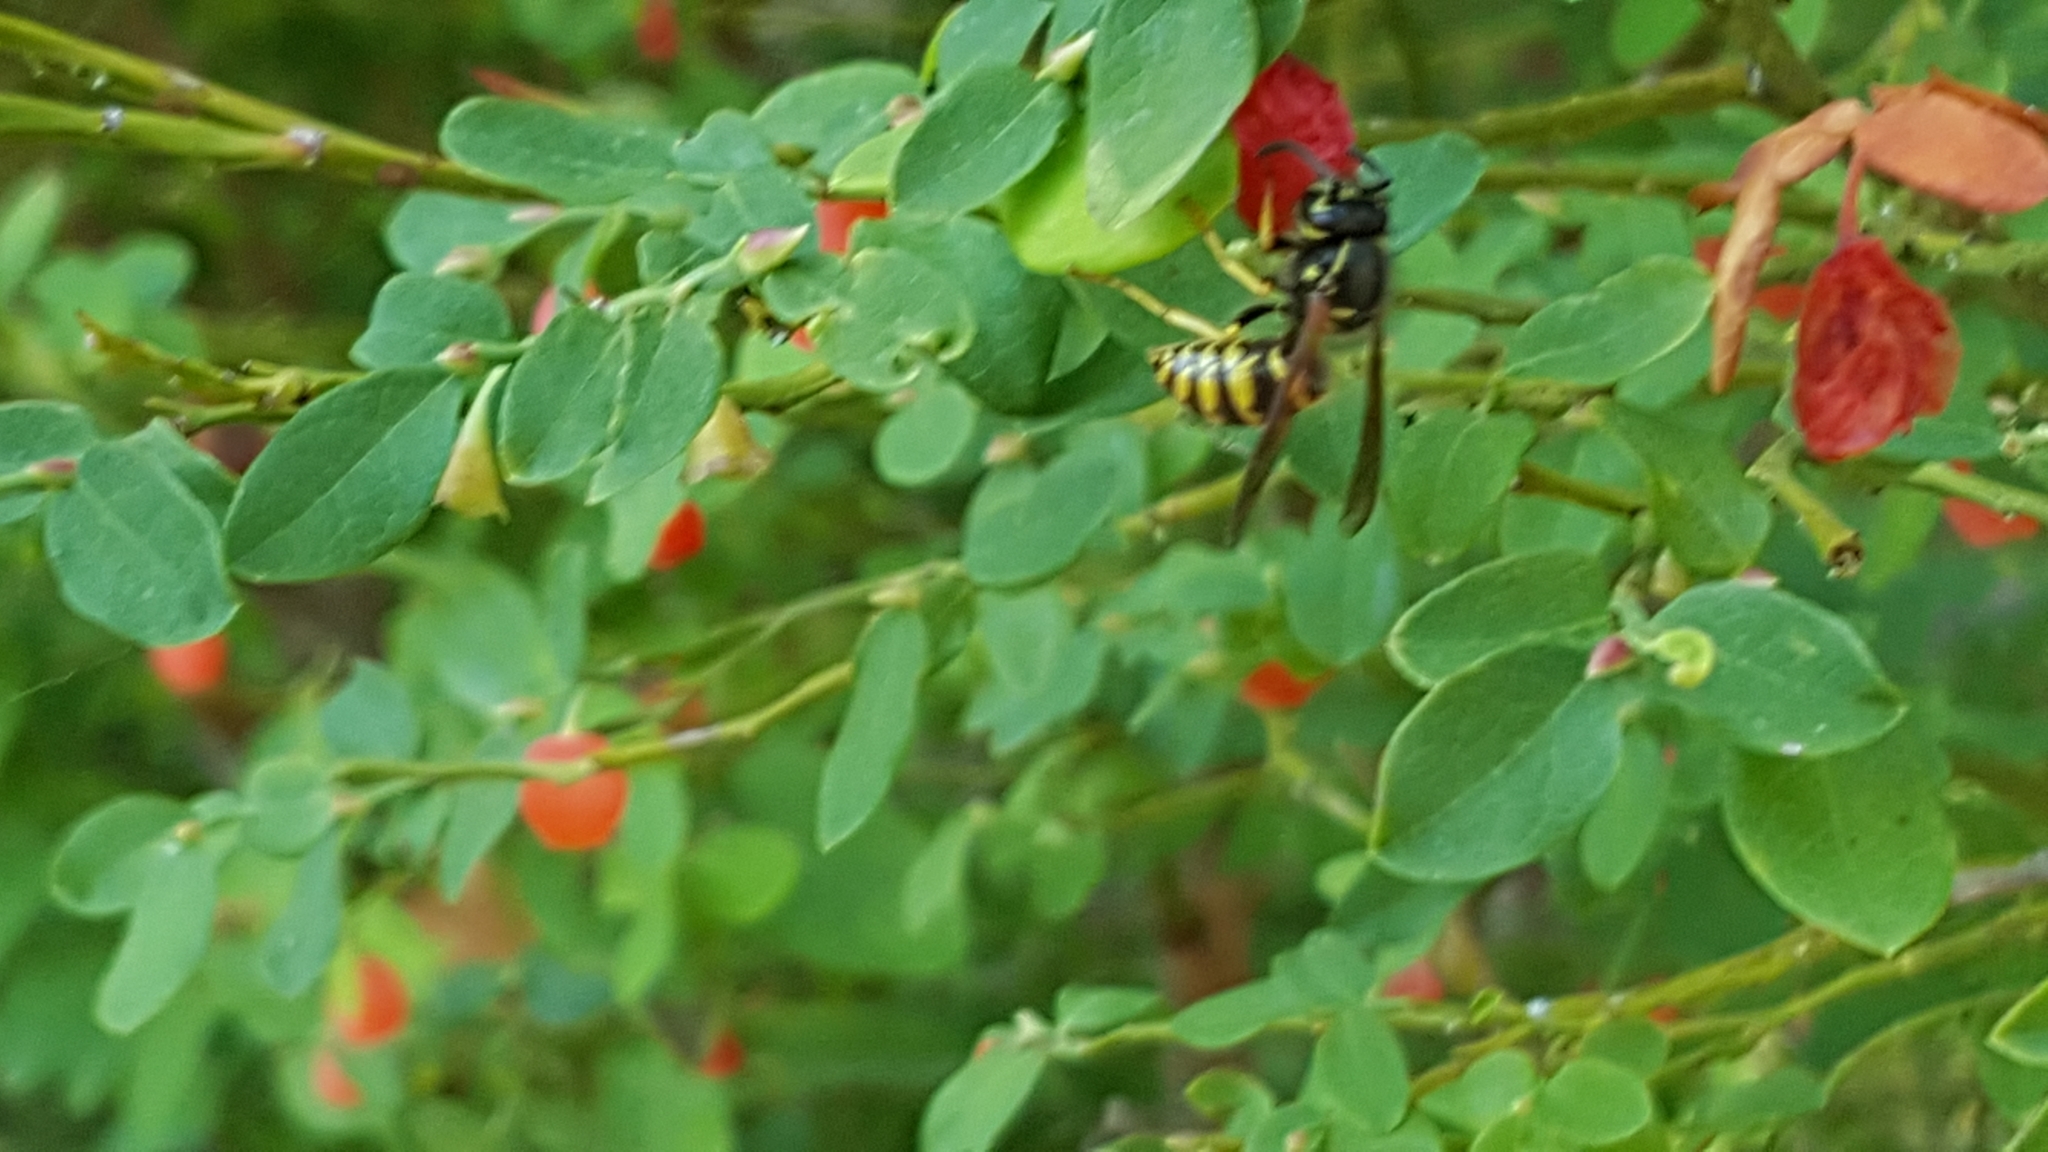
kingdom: Animalia
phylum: Arthropoda
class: Insecta
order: Hymenoptera
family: Vespidae
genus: Vespula
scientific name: Vespula alascensis
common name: Alaska yellowjacket
